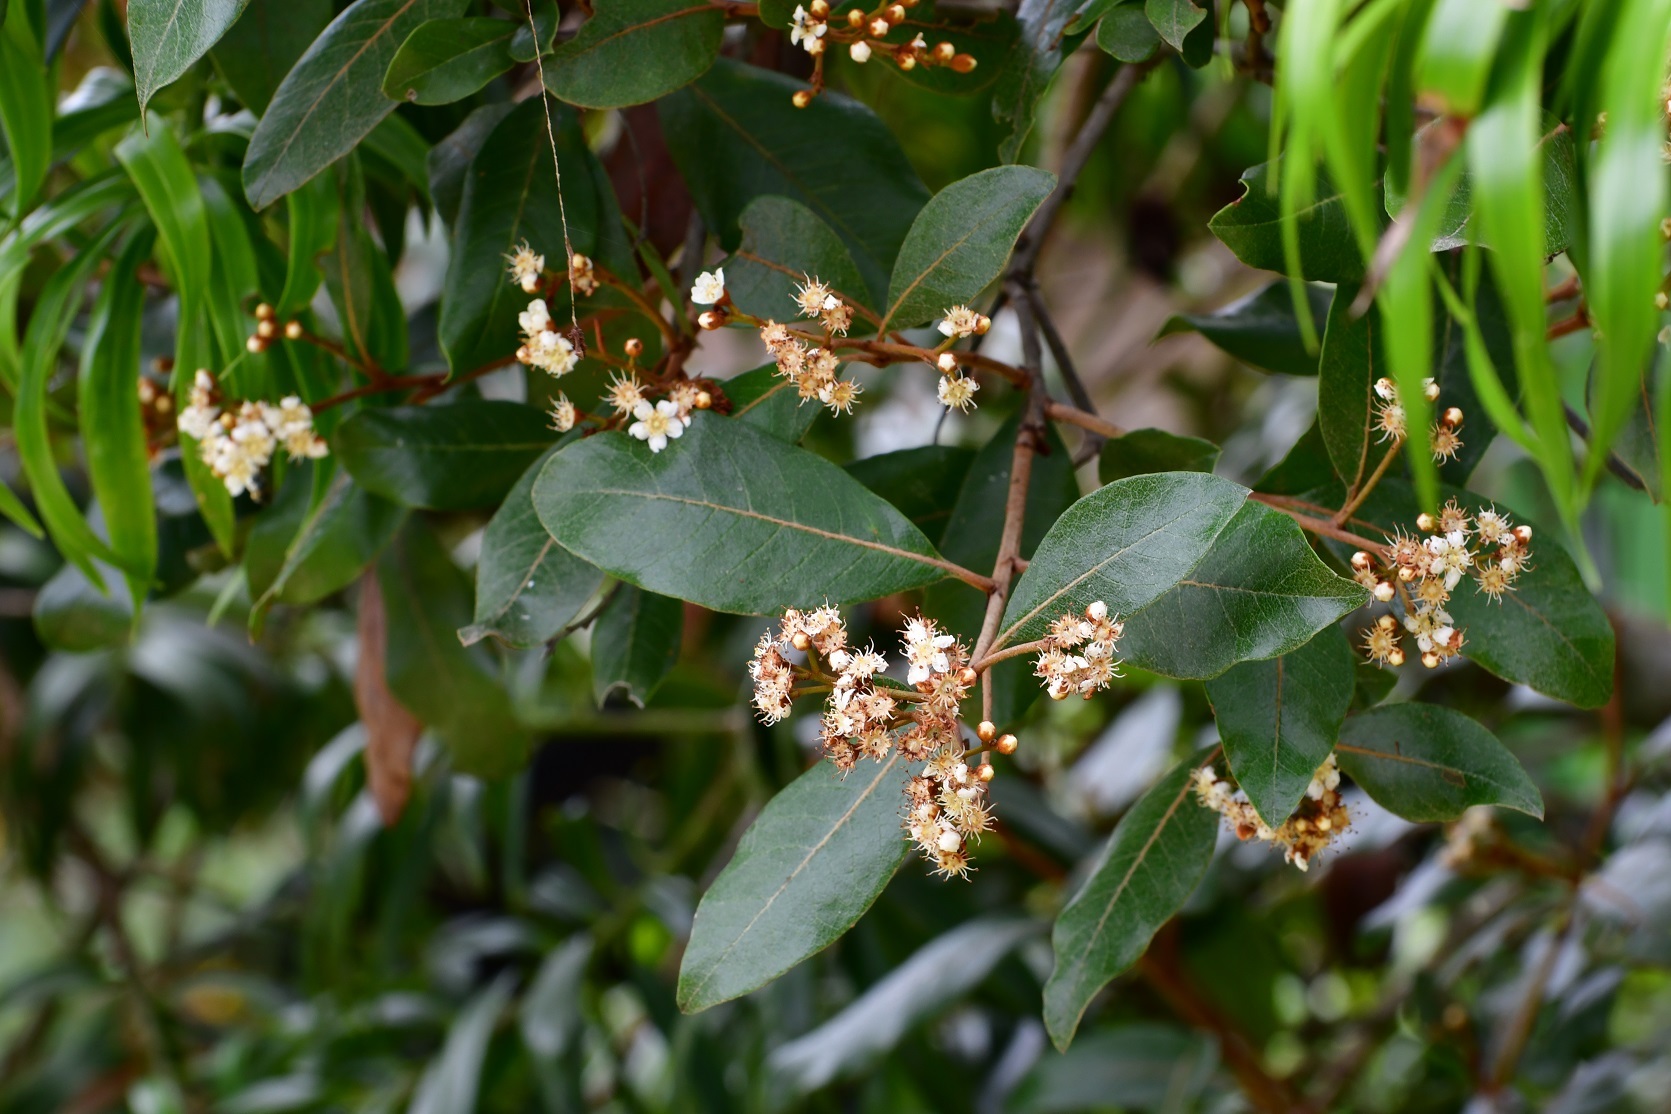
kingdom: Plantae
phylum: Tracheophyta
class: Magnoliopsida
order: Rosales
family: Rosaceae
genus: Phippsiomeles
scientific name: Phippsiomeles matudae
